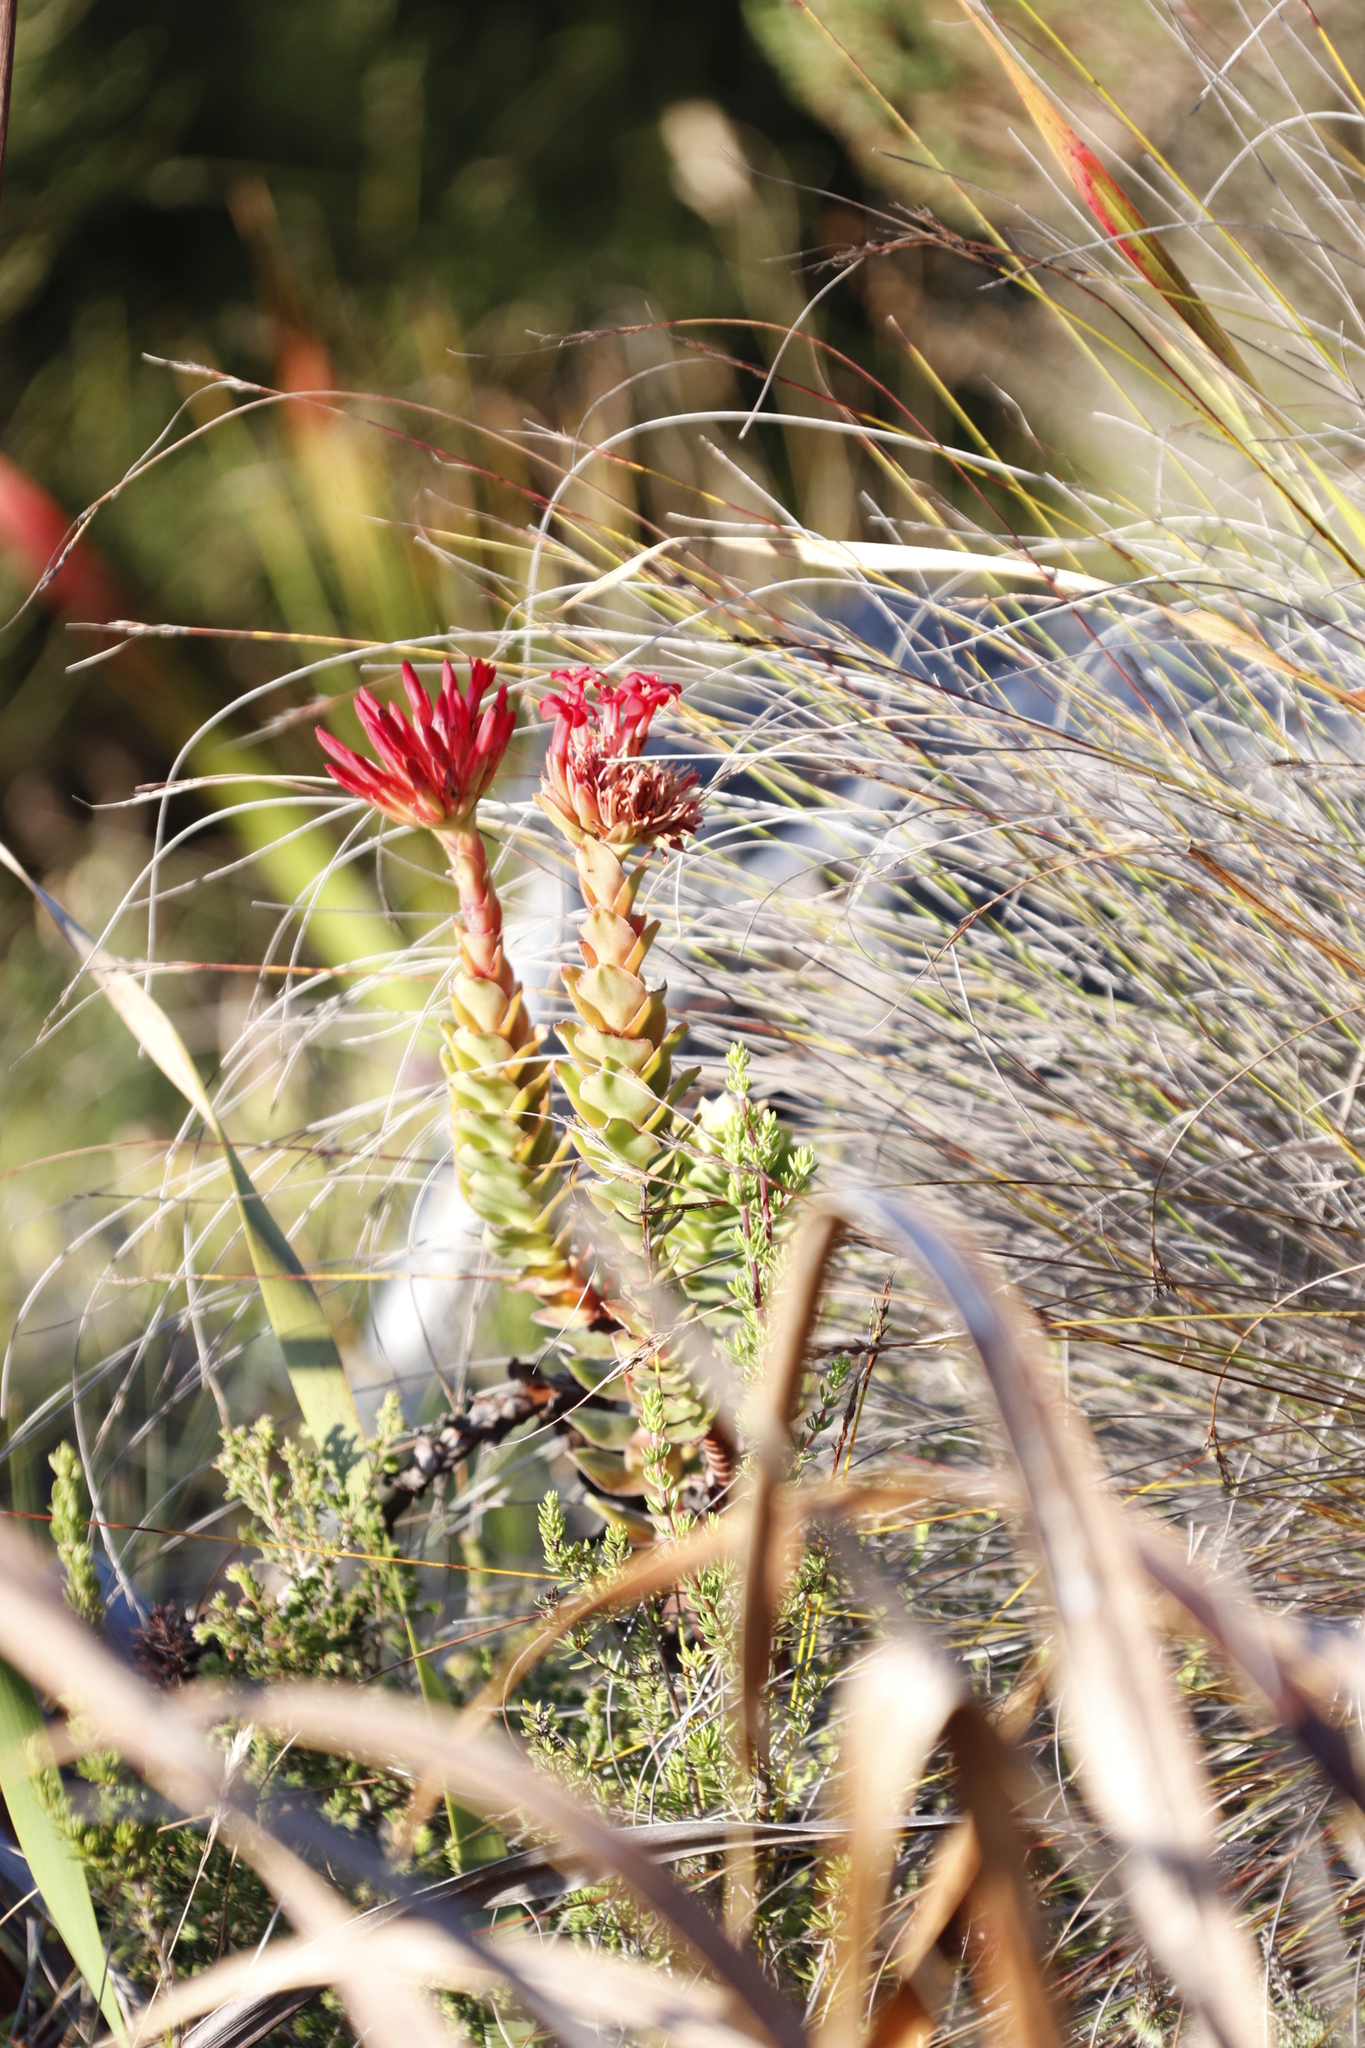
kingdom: Plantae
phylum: Tracheophyta
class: Magnoliopsida
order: Saxifragales
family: Crassulaceae
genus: Crassula
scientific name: Crassula coccinea
